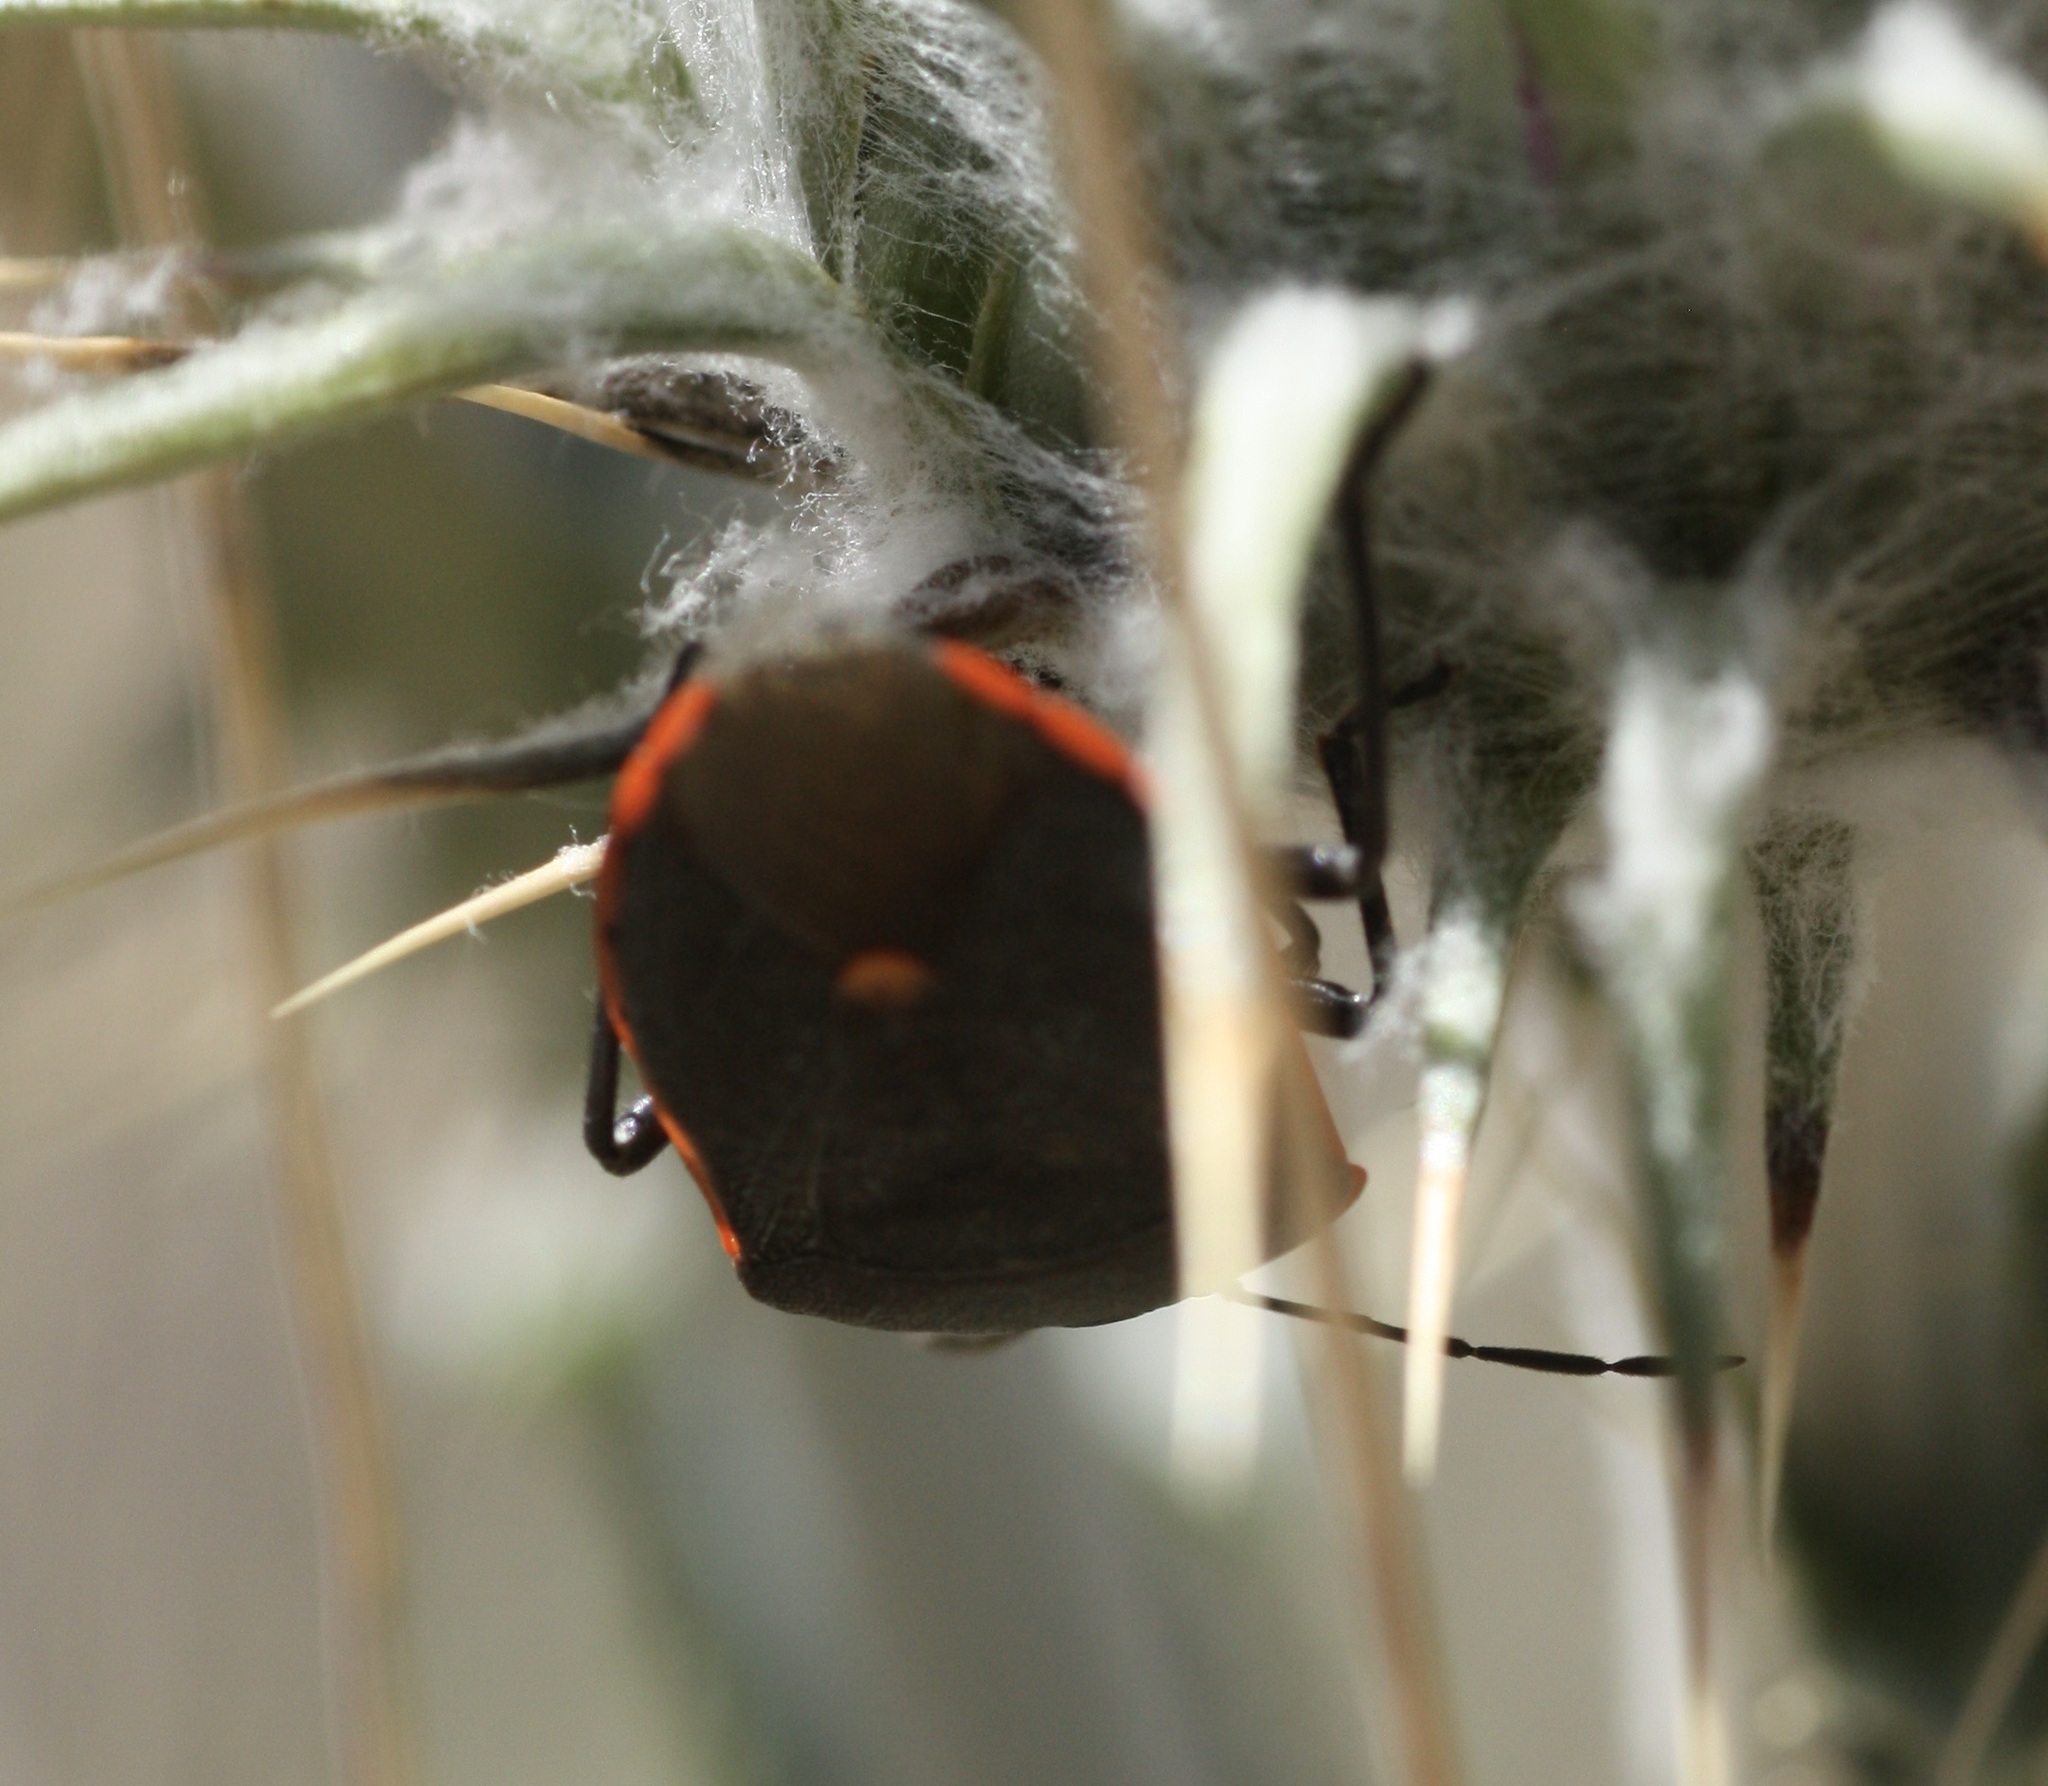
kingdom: Animalia
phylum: Arthropoda
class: Insecta
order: Hemiptera
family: Pentatomidae
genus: Chlorochroa
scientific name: Chlorochroa ligata
